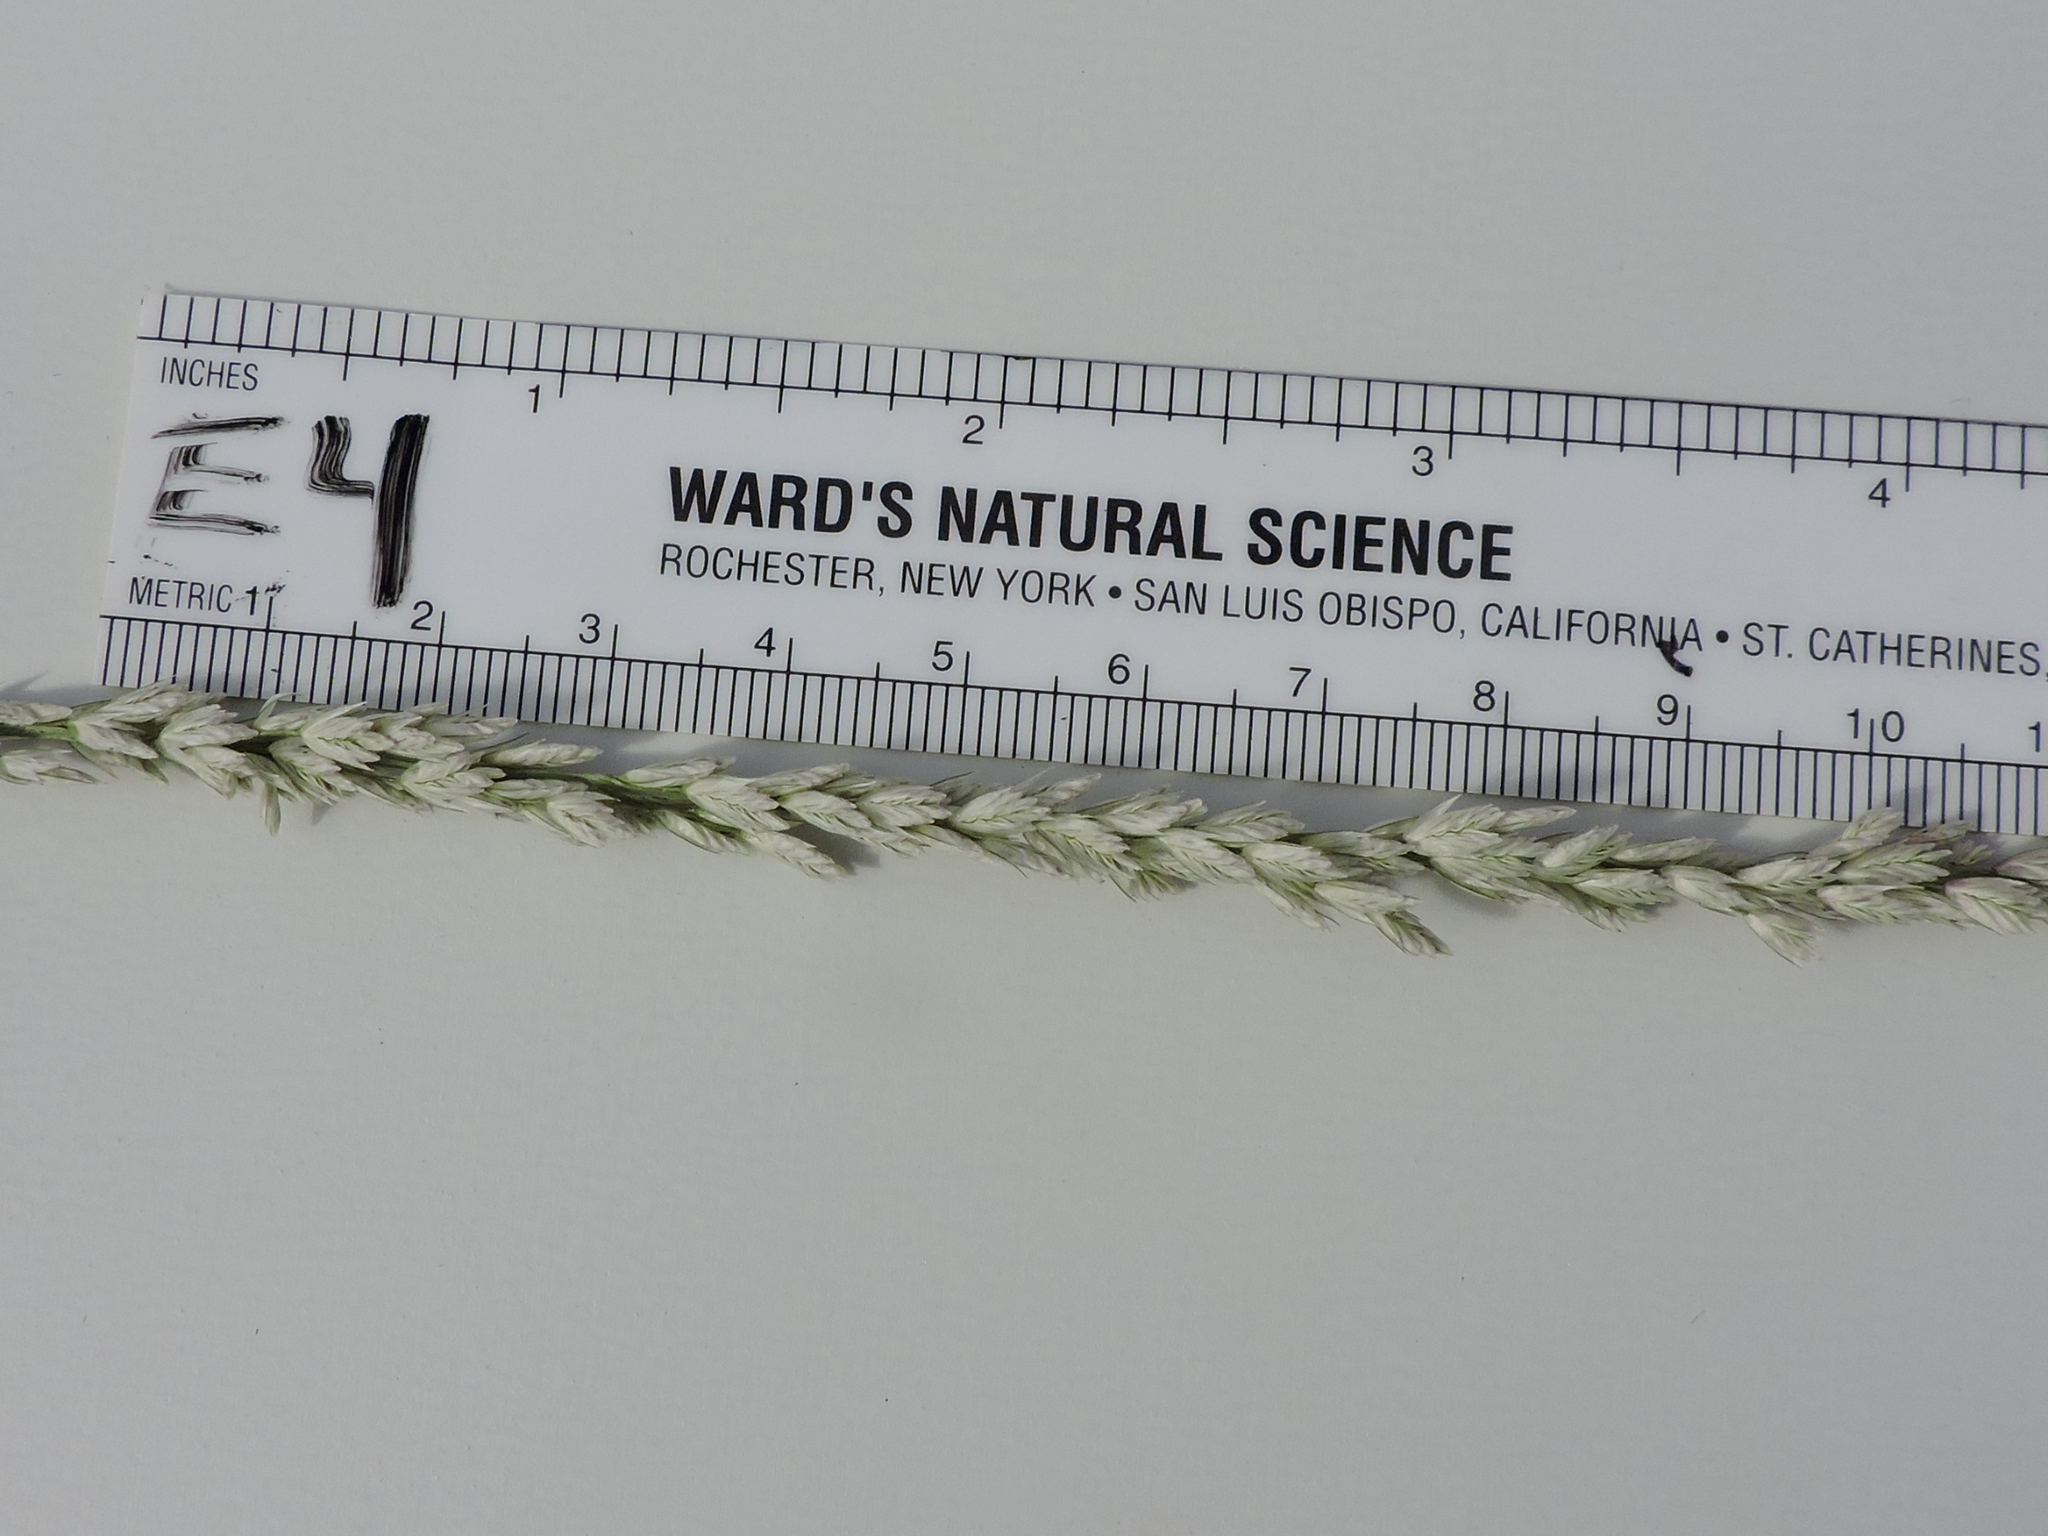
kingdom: Plantae
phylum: Tracheophyta
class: Liliopsida
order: Poales
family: Poaceae
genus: Tridens
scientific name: Tridens albescens
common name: White tridens
